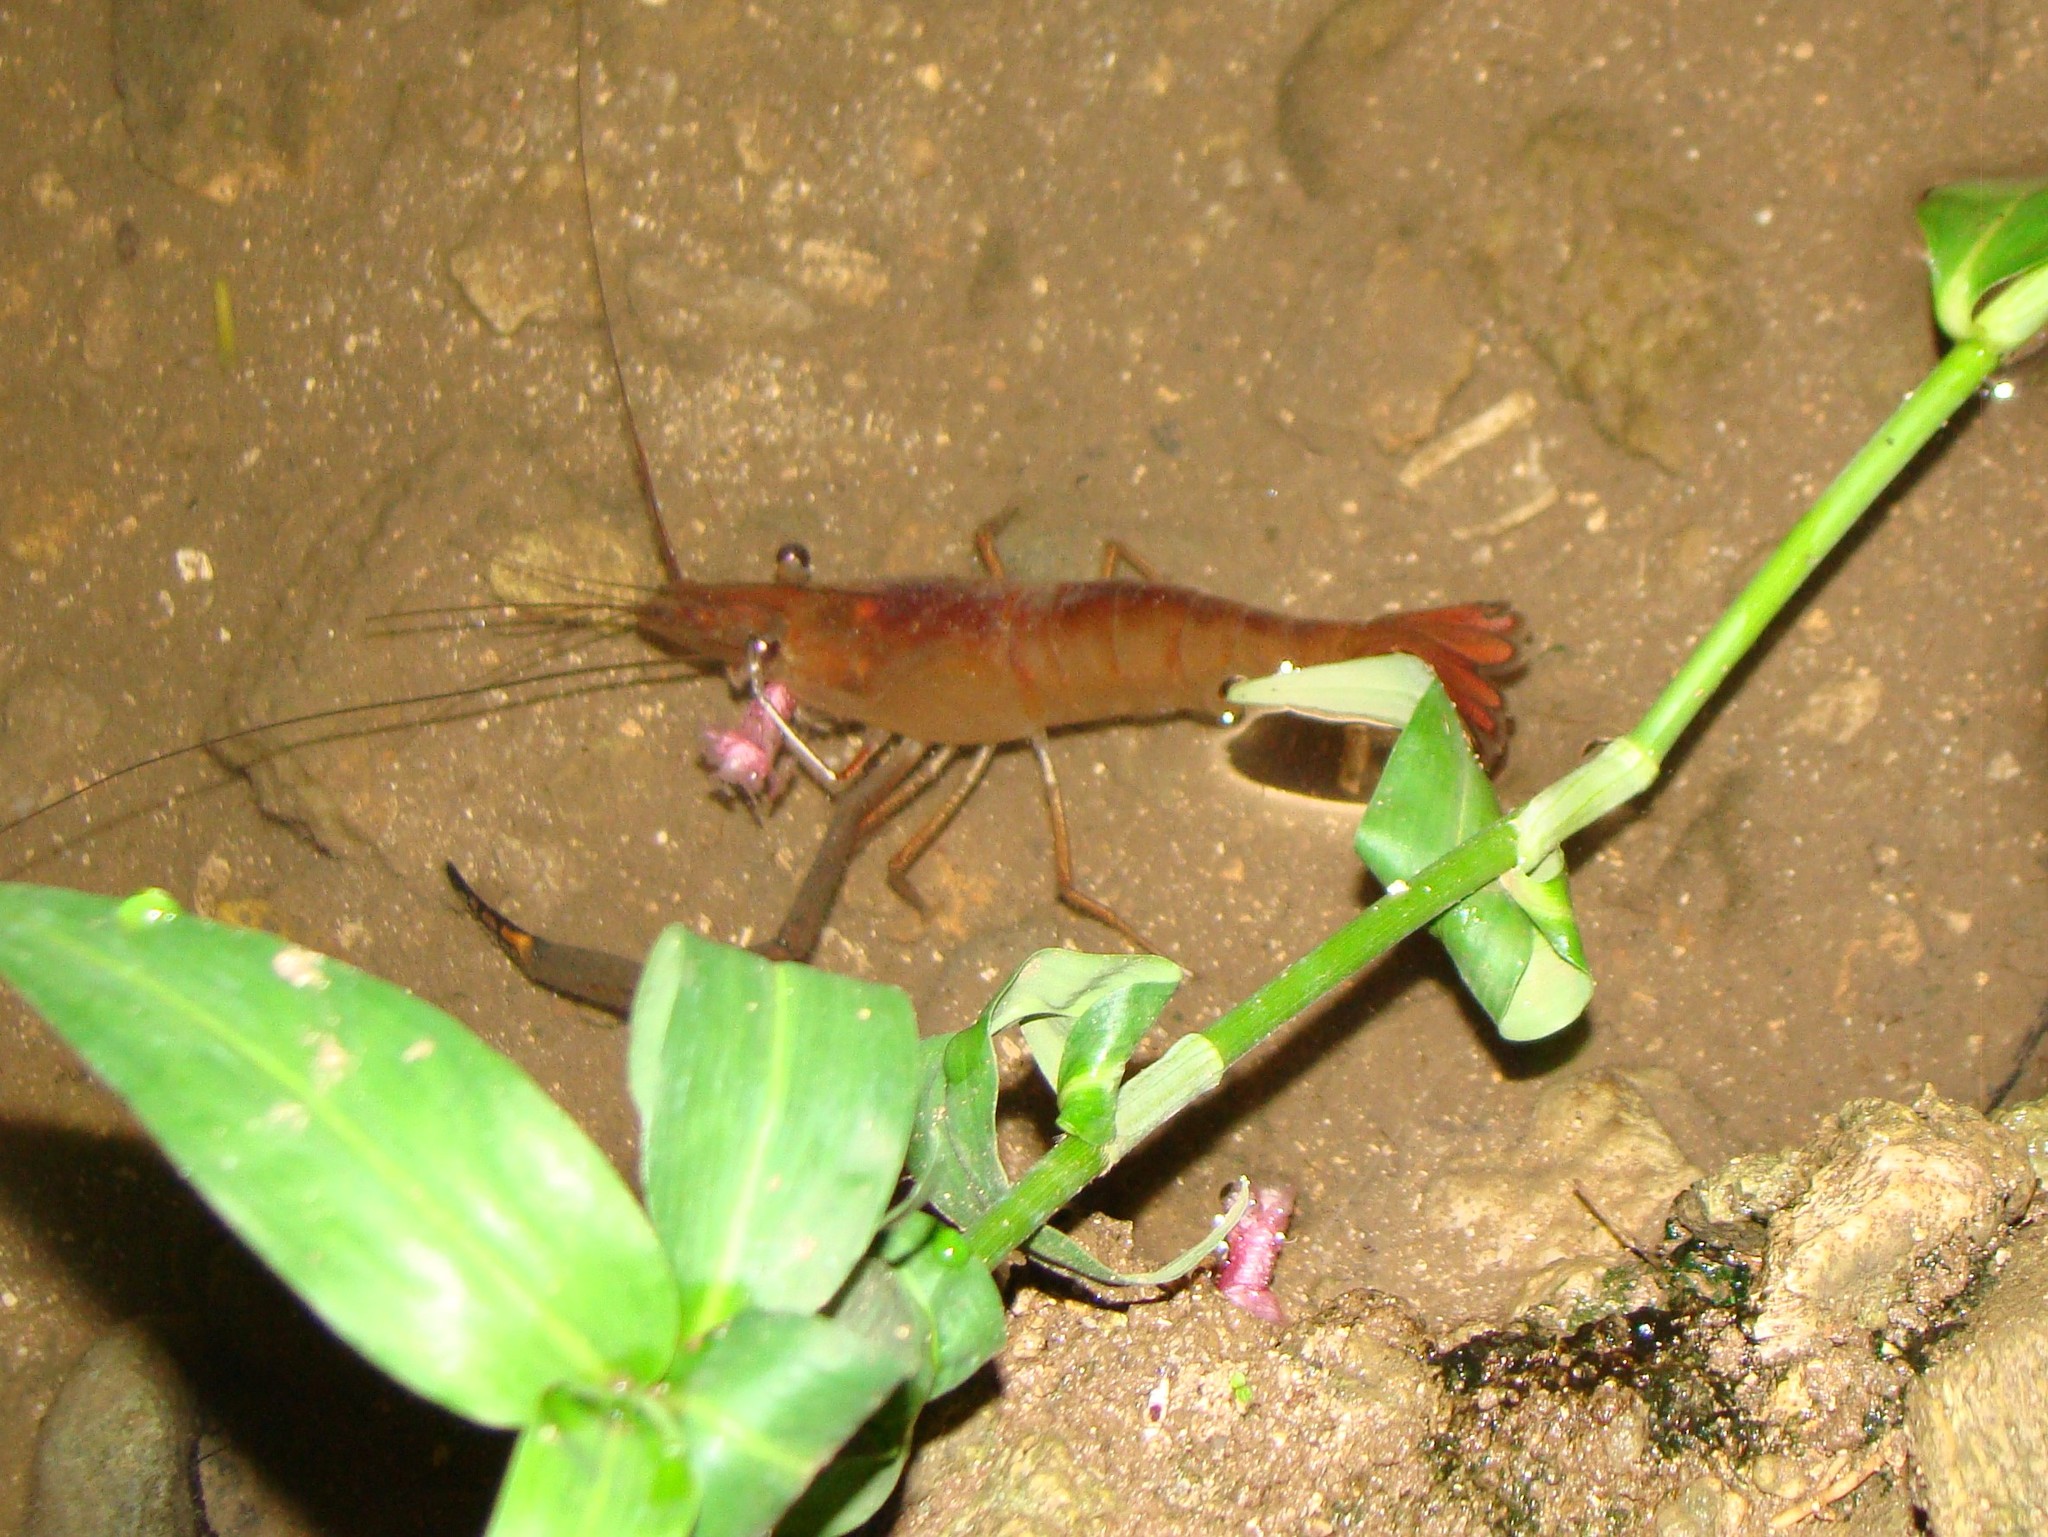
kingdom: Animalia
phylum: Arthropoda
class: Malacostraca
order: Decapoda
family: Palaemonidae
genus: Macrobrachium
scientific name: Macrobrachium lar
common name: Monkey river prawn
